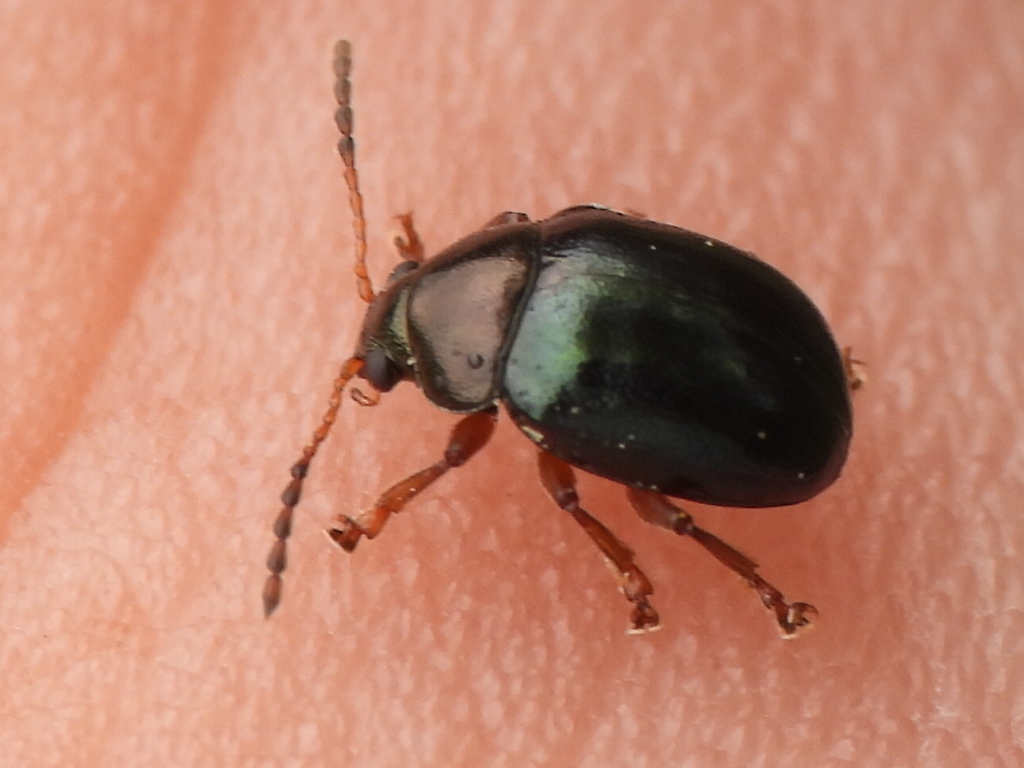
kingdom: Animalia
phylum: Arthropoda
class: Insecta
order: Coleoptera
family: Chrysomelidae
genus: Brachypnoea
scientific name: Brachypnoea lecontei
